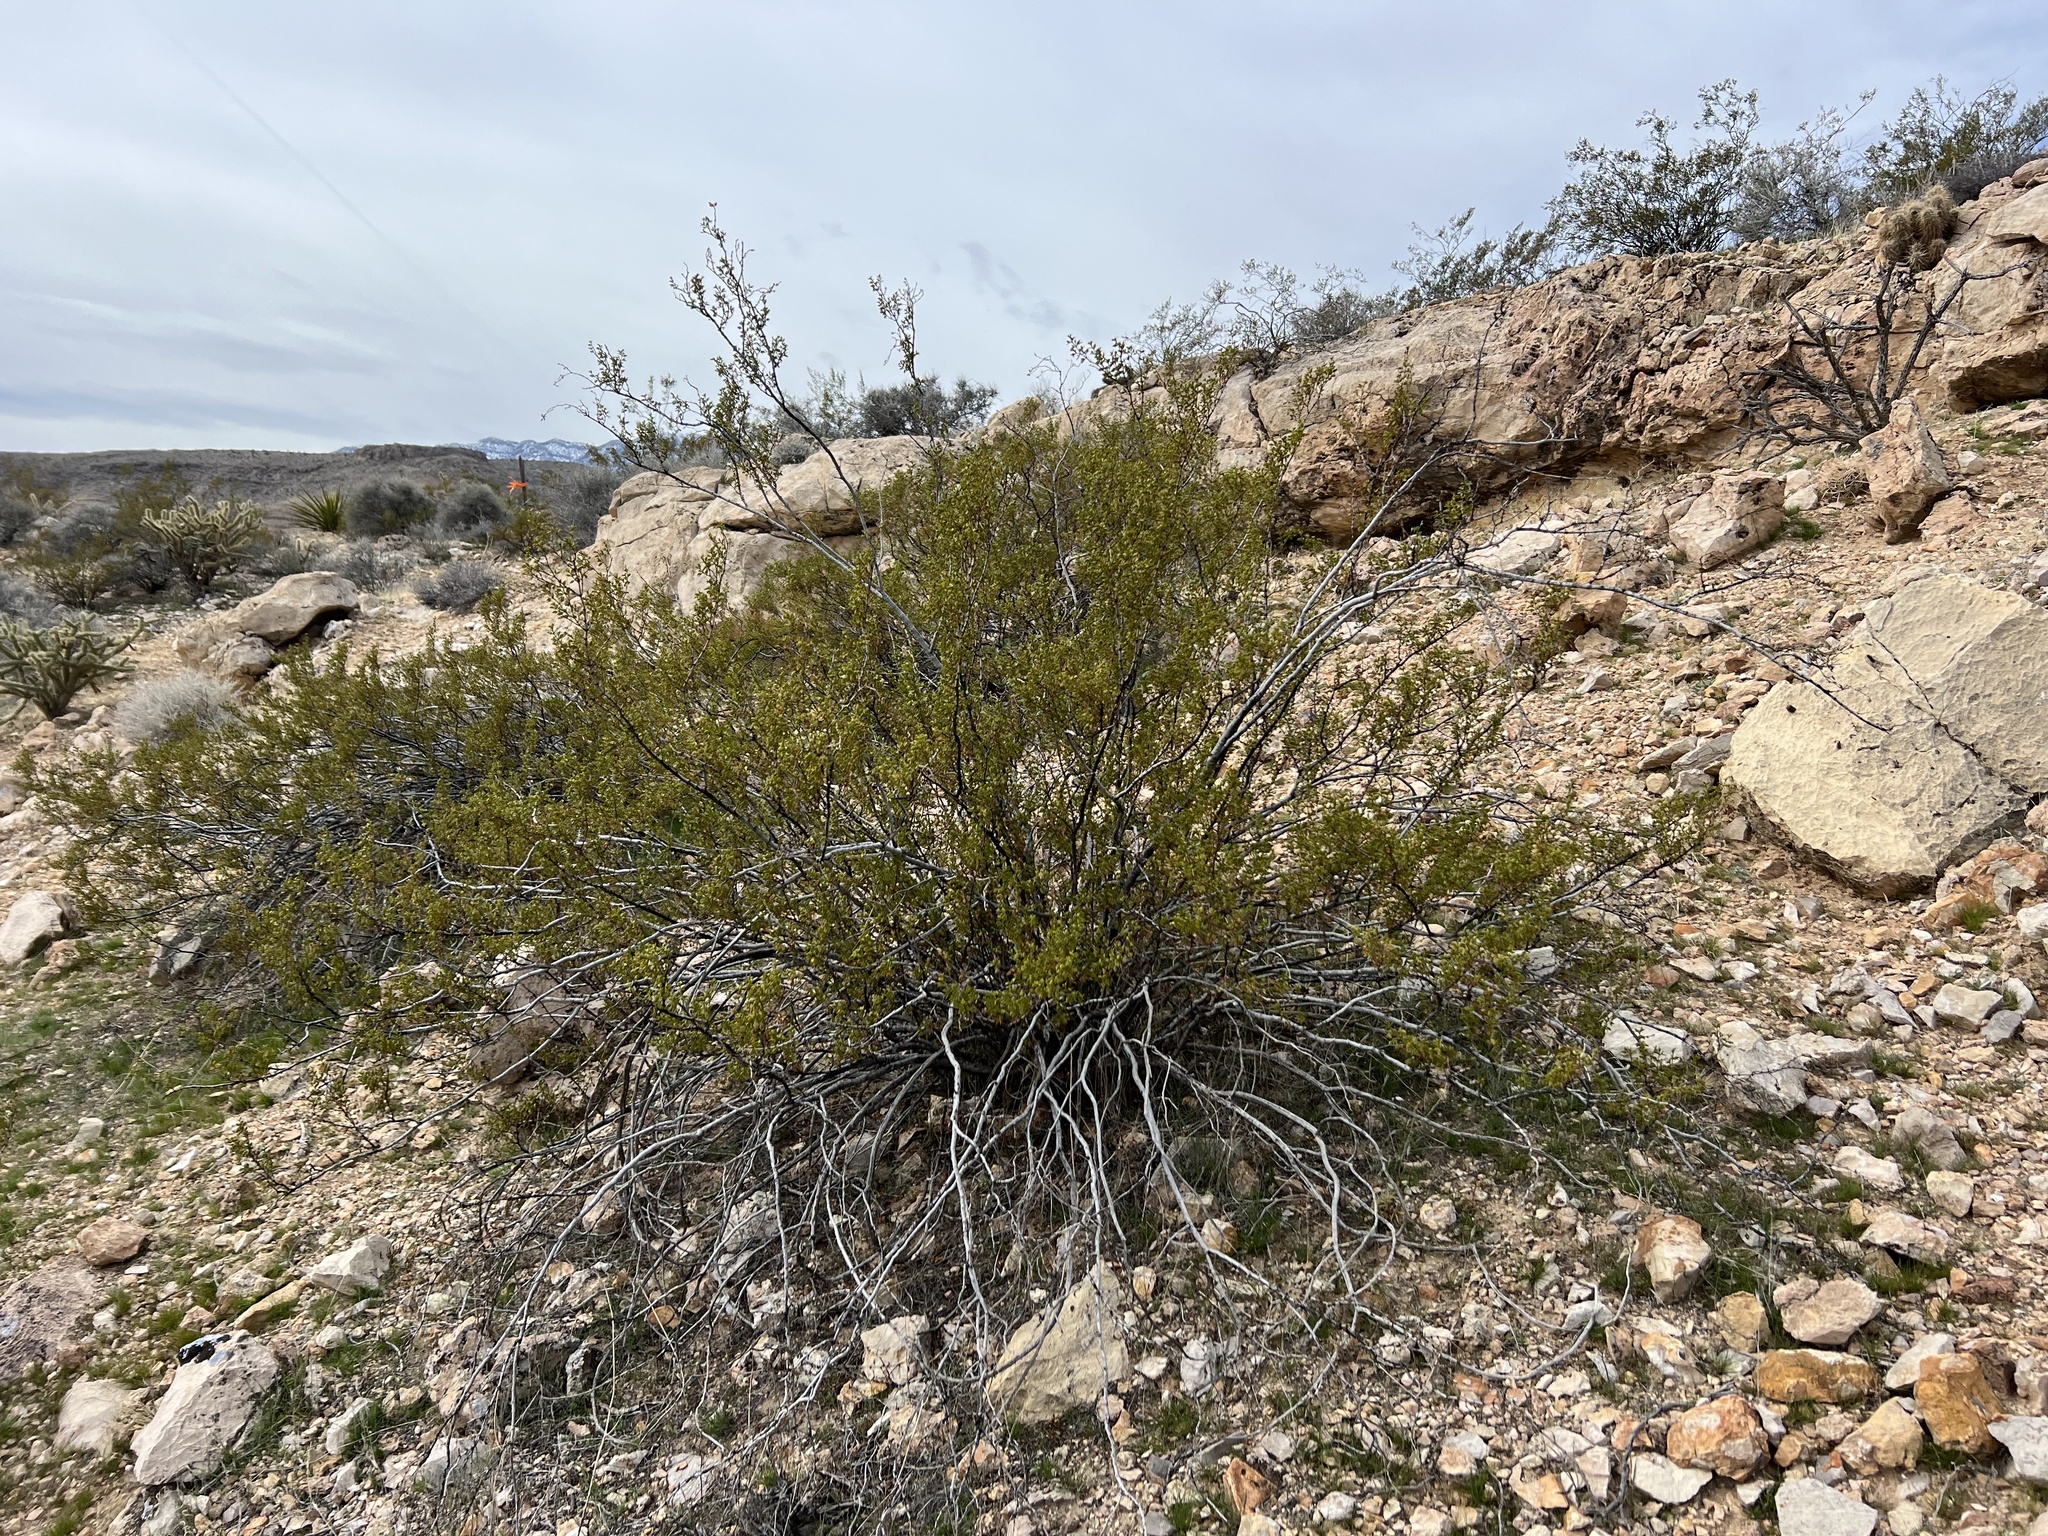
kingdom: Plantae
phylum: Tracheophyta
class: Magnoliopsida
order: Zygophyllales
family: Zygophyllaceae
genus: Larrea
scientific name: Larrea tridentata
